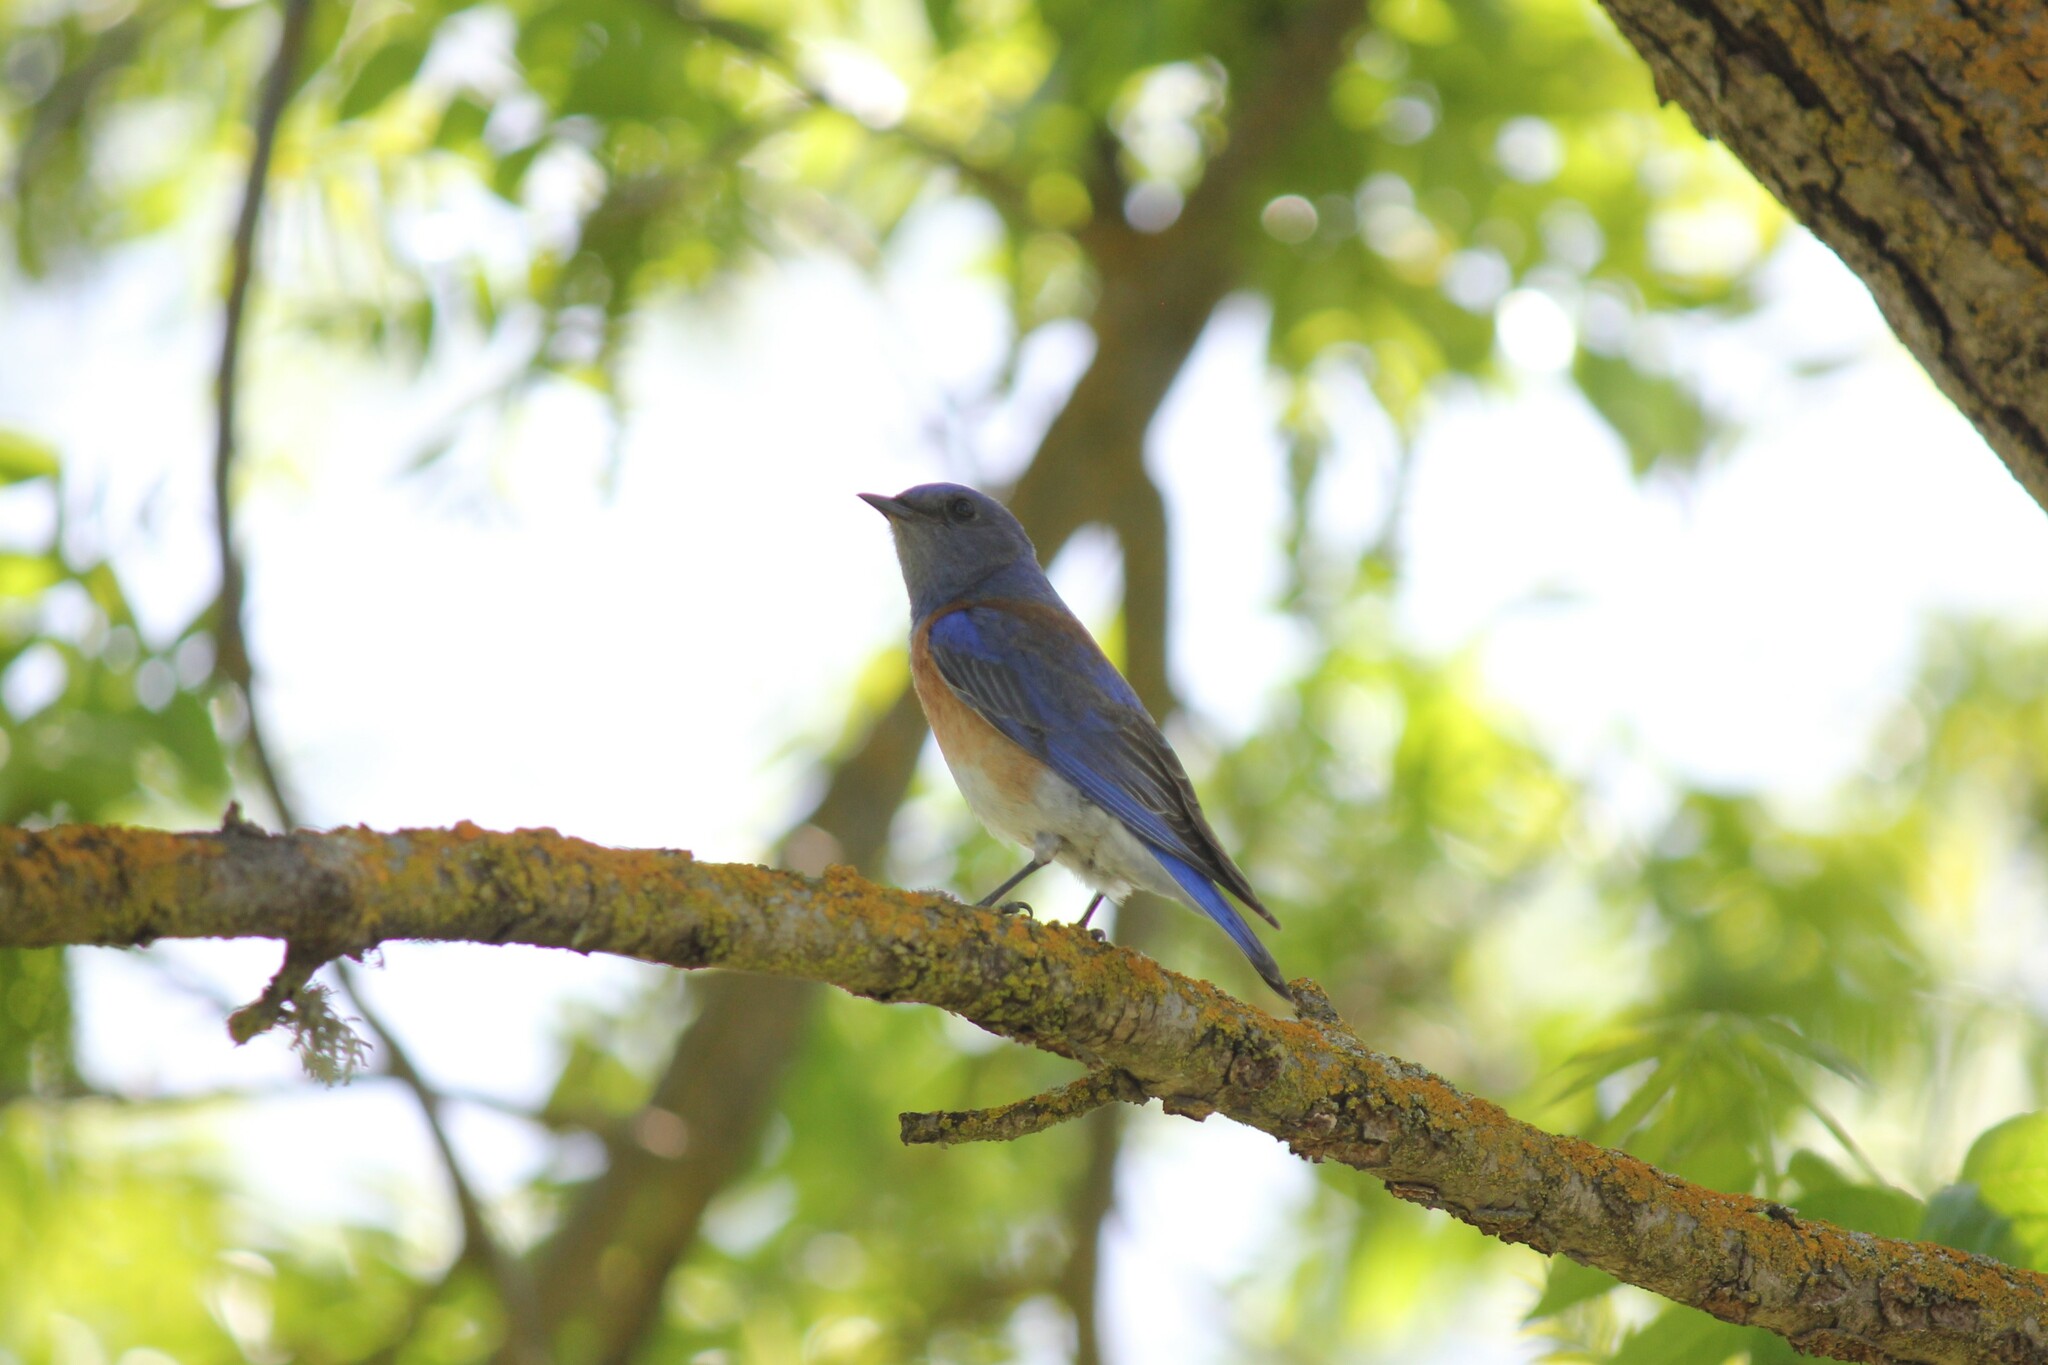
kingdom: Animalia
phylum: Chordata
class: Aves
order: Passeriformes
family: Turdidae
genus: Sialia
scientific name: Sialia mexicana
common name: Western bluebird
